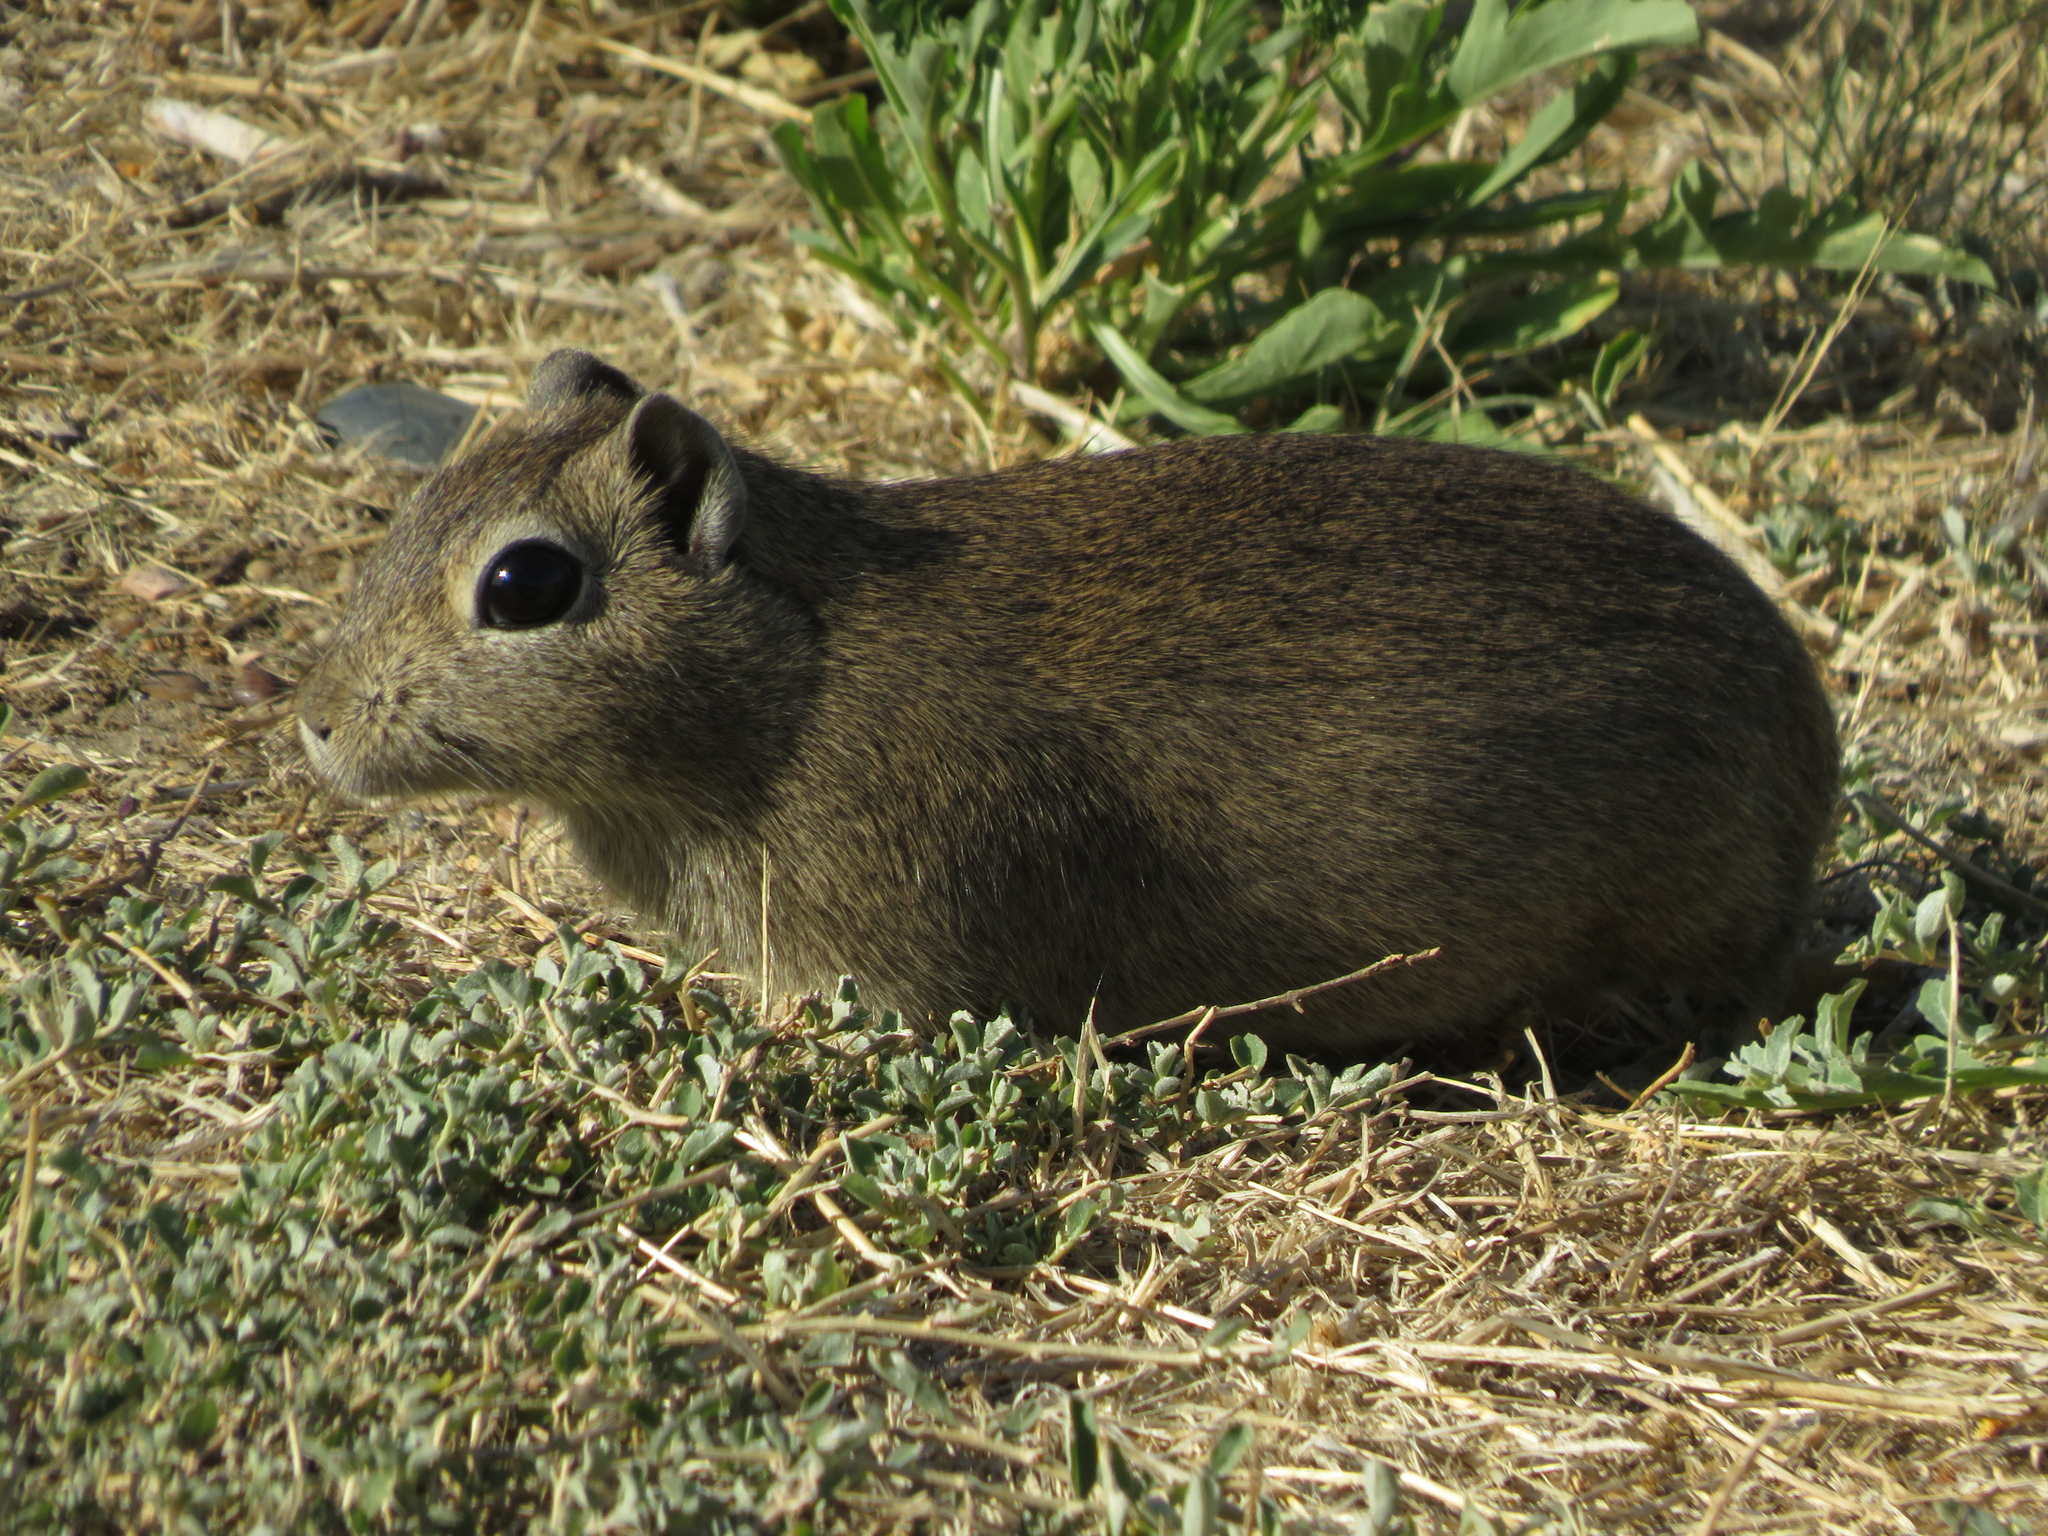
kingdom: Animalia
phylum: Chordata
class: Mammalia
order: Rodentia
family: Caviidae
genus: Microcavia
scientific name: Microcavia australis
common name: Southern mountain cavy
